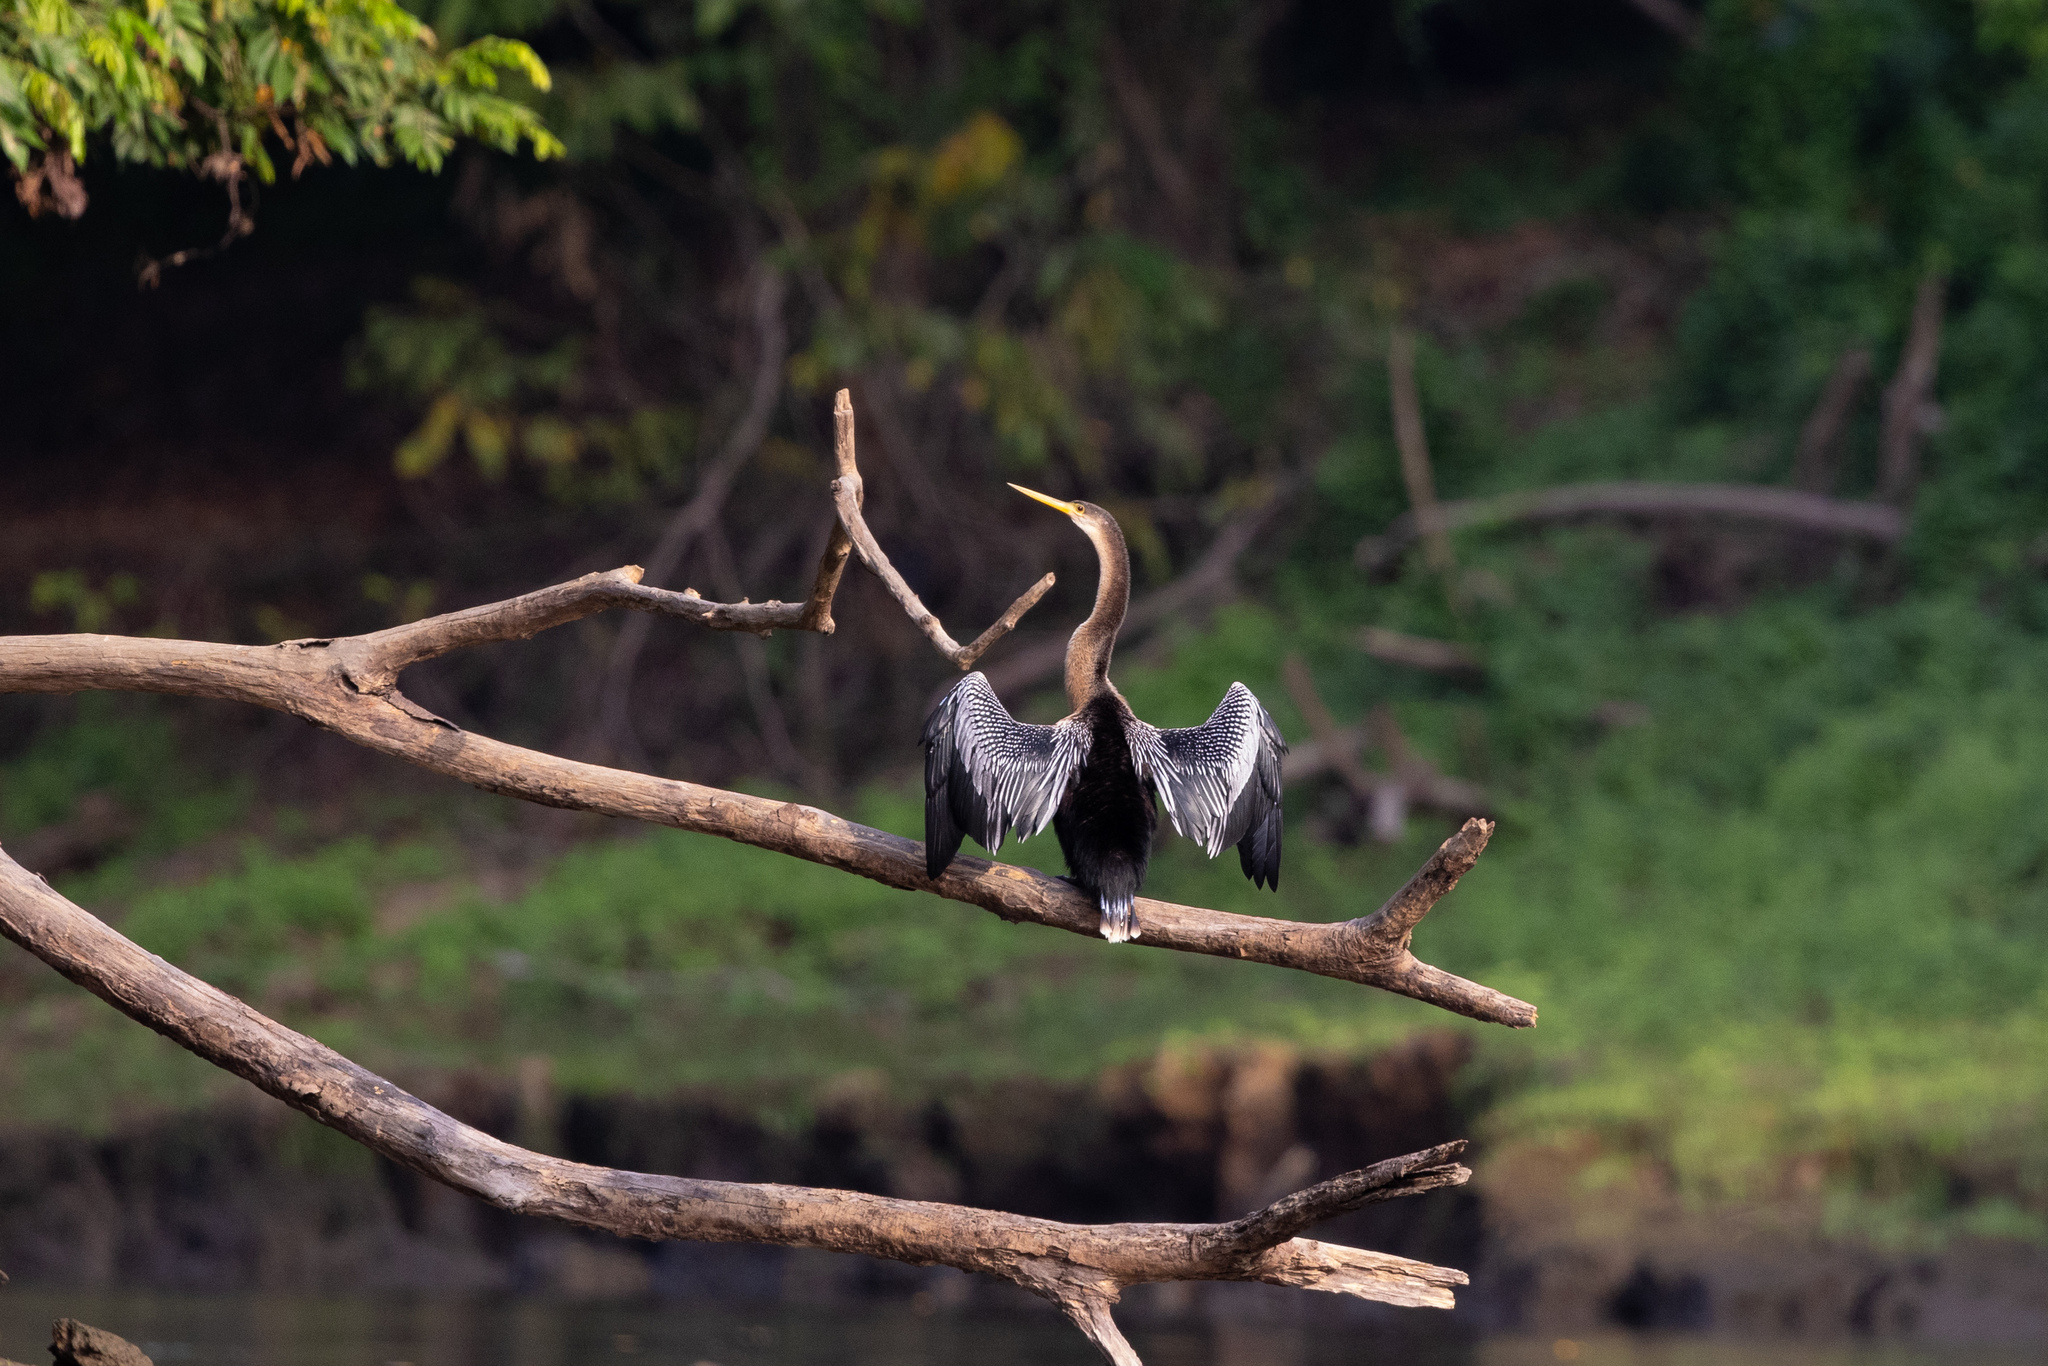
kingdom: Animalia
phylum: Chordata
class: Aves
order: Suliformes
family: Anhingidae
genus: Anhinga
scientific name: Anhinga anhinga
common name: Anhinga
